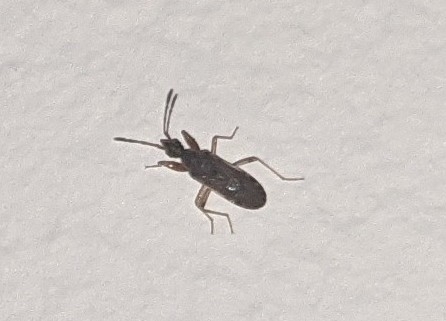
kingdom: Animalia
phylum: Arthropoda
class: Insecta
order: Hemiptera
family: Rhyparochromidae
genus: Heraeus
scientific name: Heraeus plebejus
